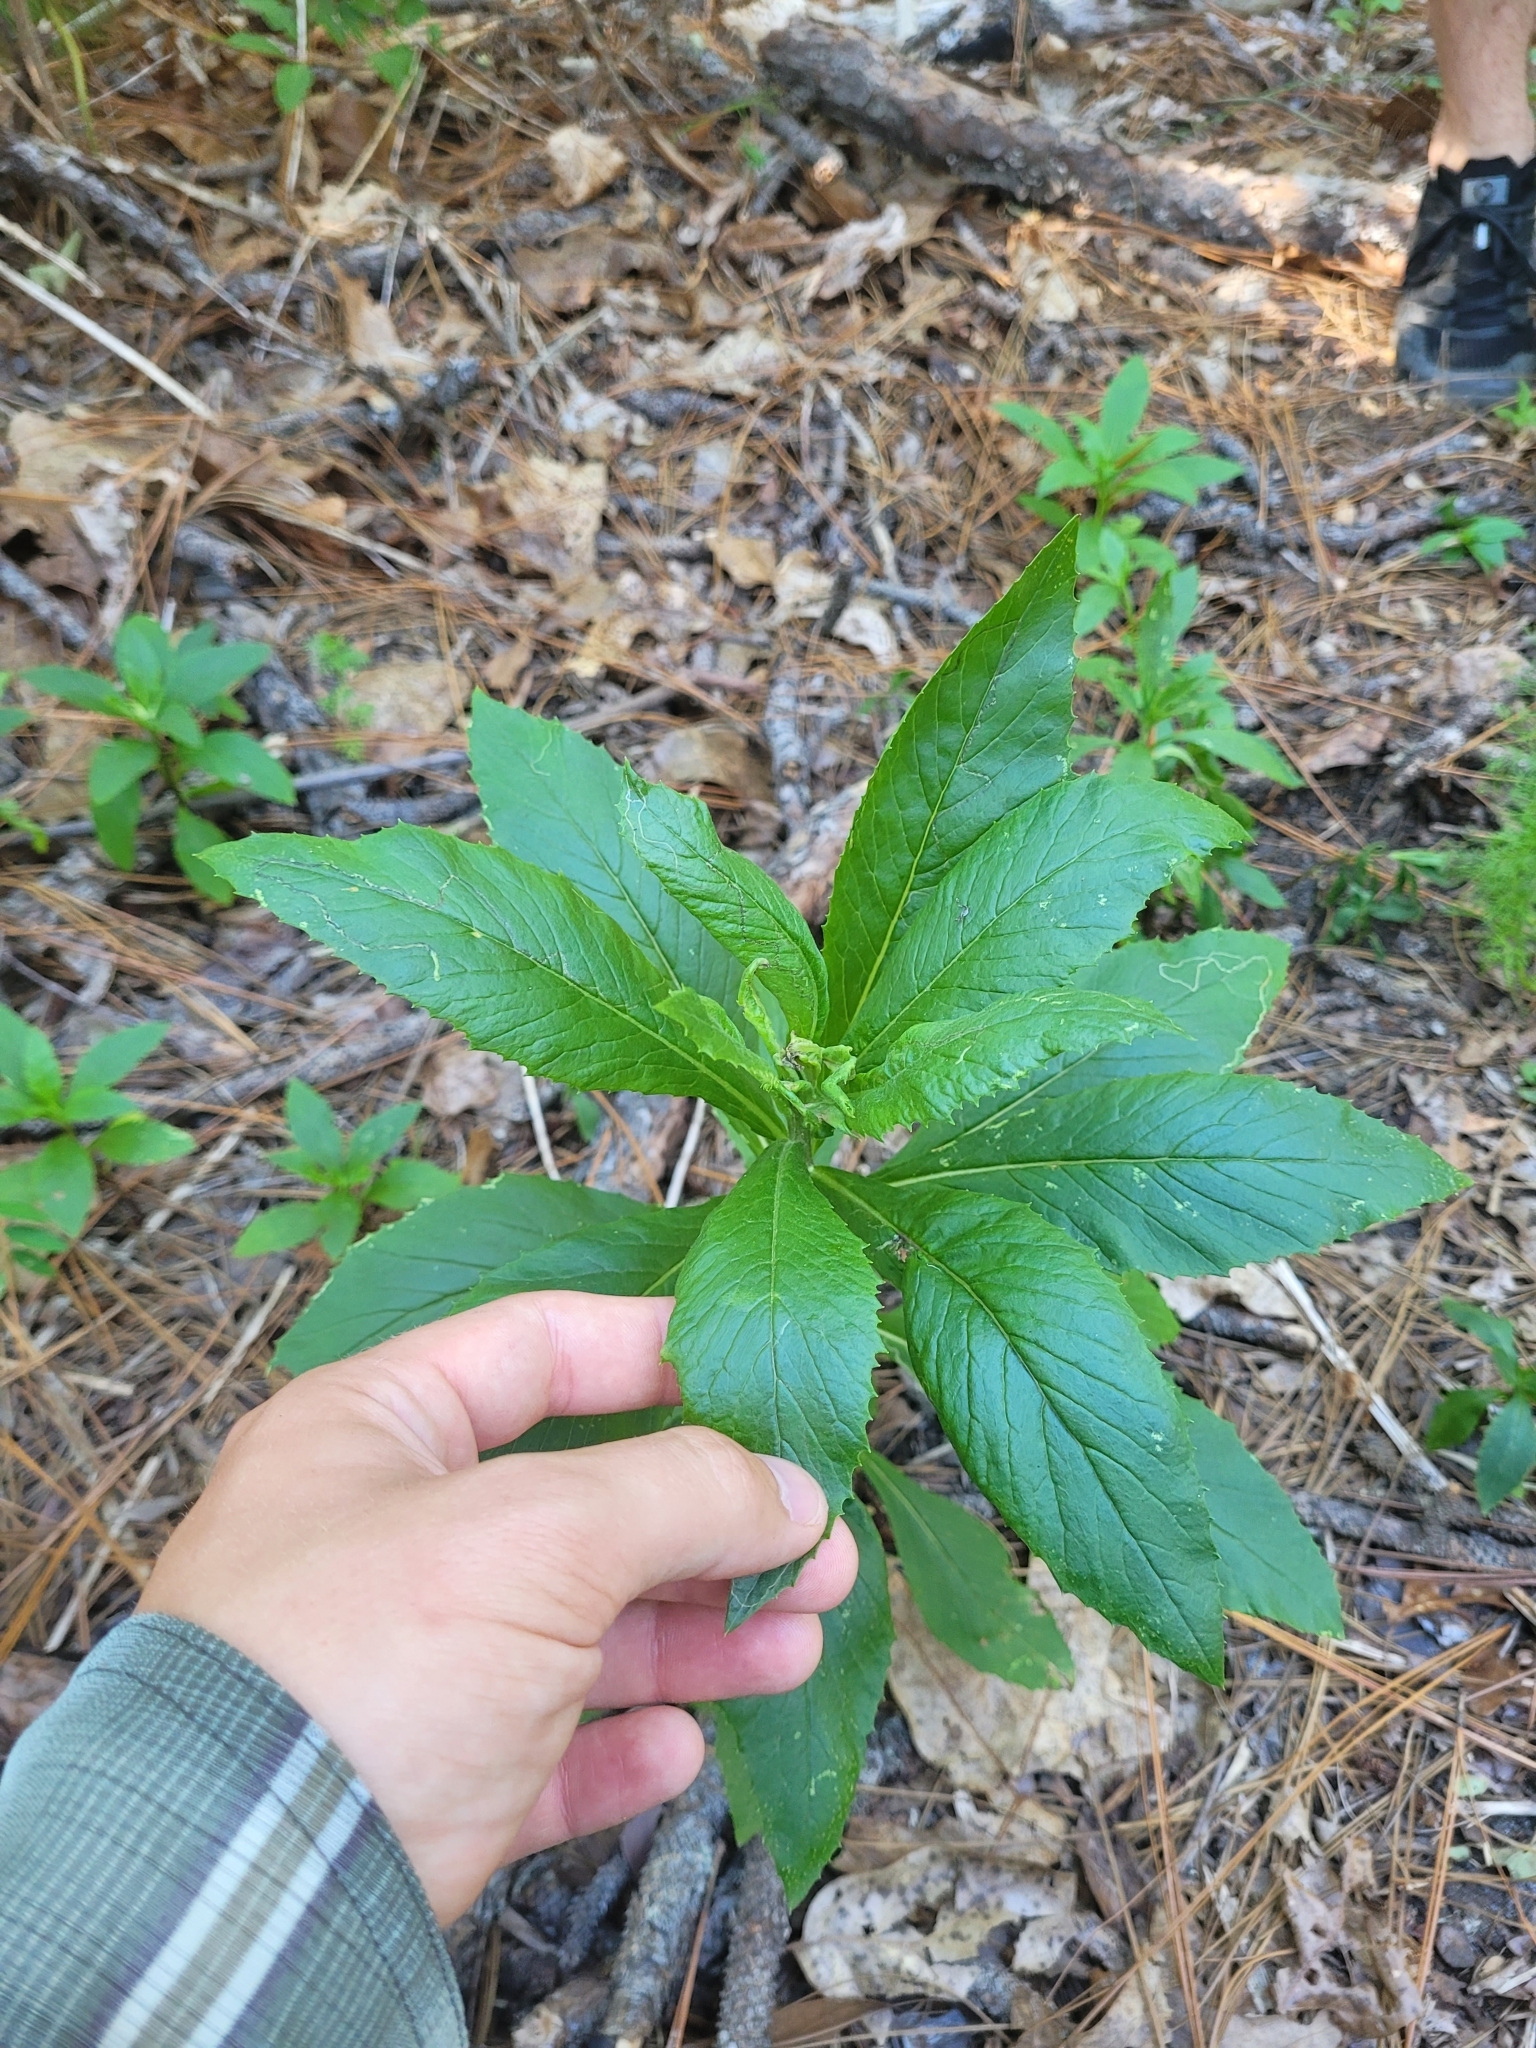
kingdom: Plantae
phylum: Tracheophyta
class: Magnoliopsida
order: Asterales
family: Asteraceae
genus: Erechtites
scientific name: Erechtites hieraciifolius
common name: American burnweed
